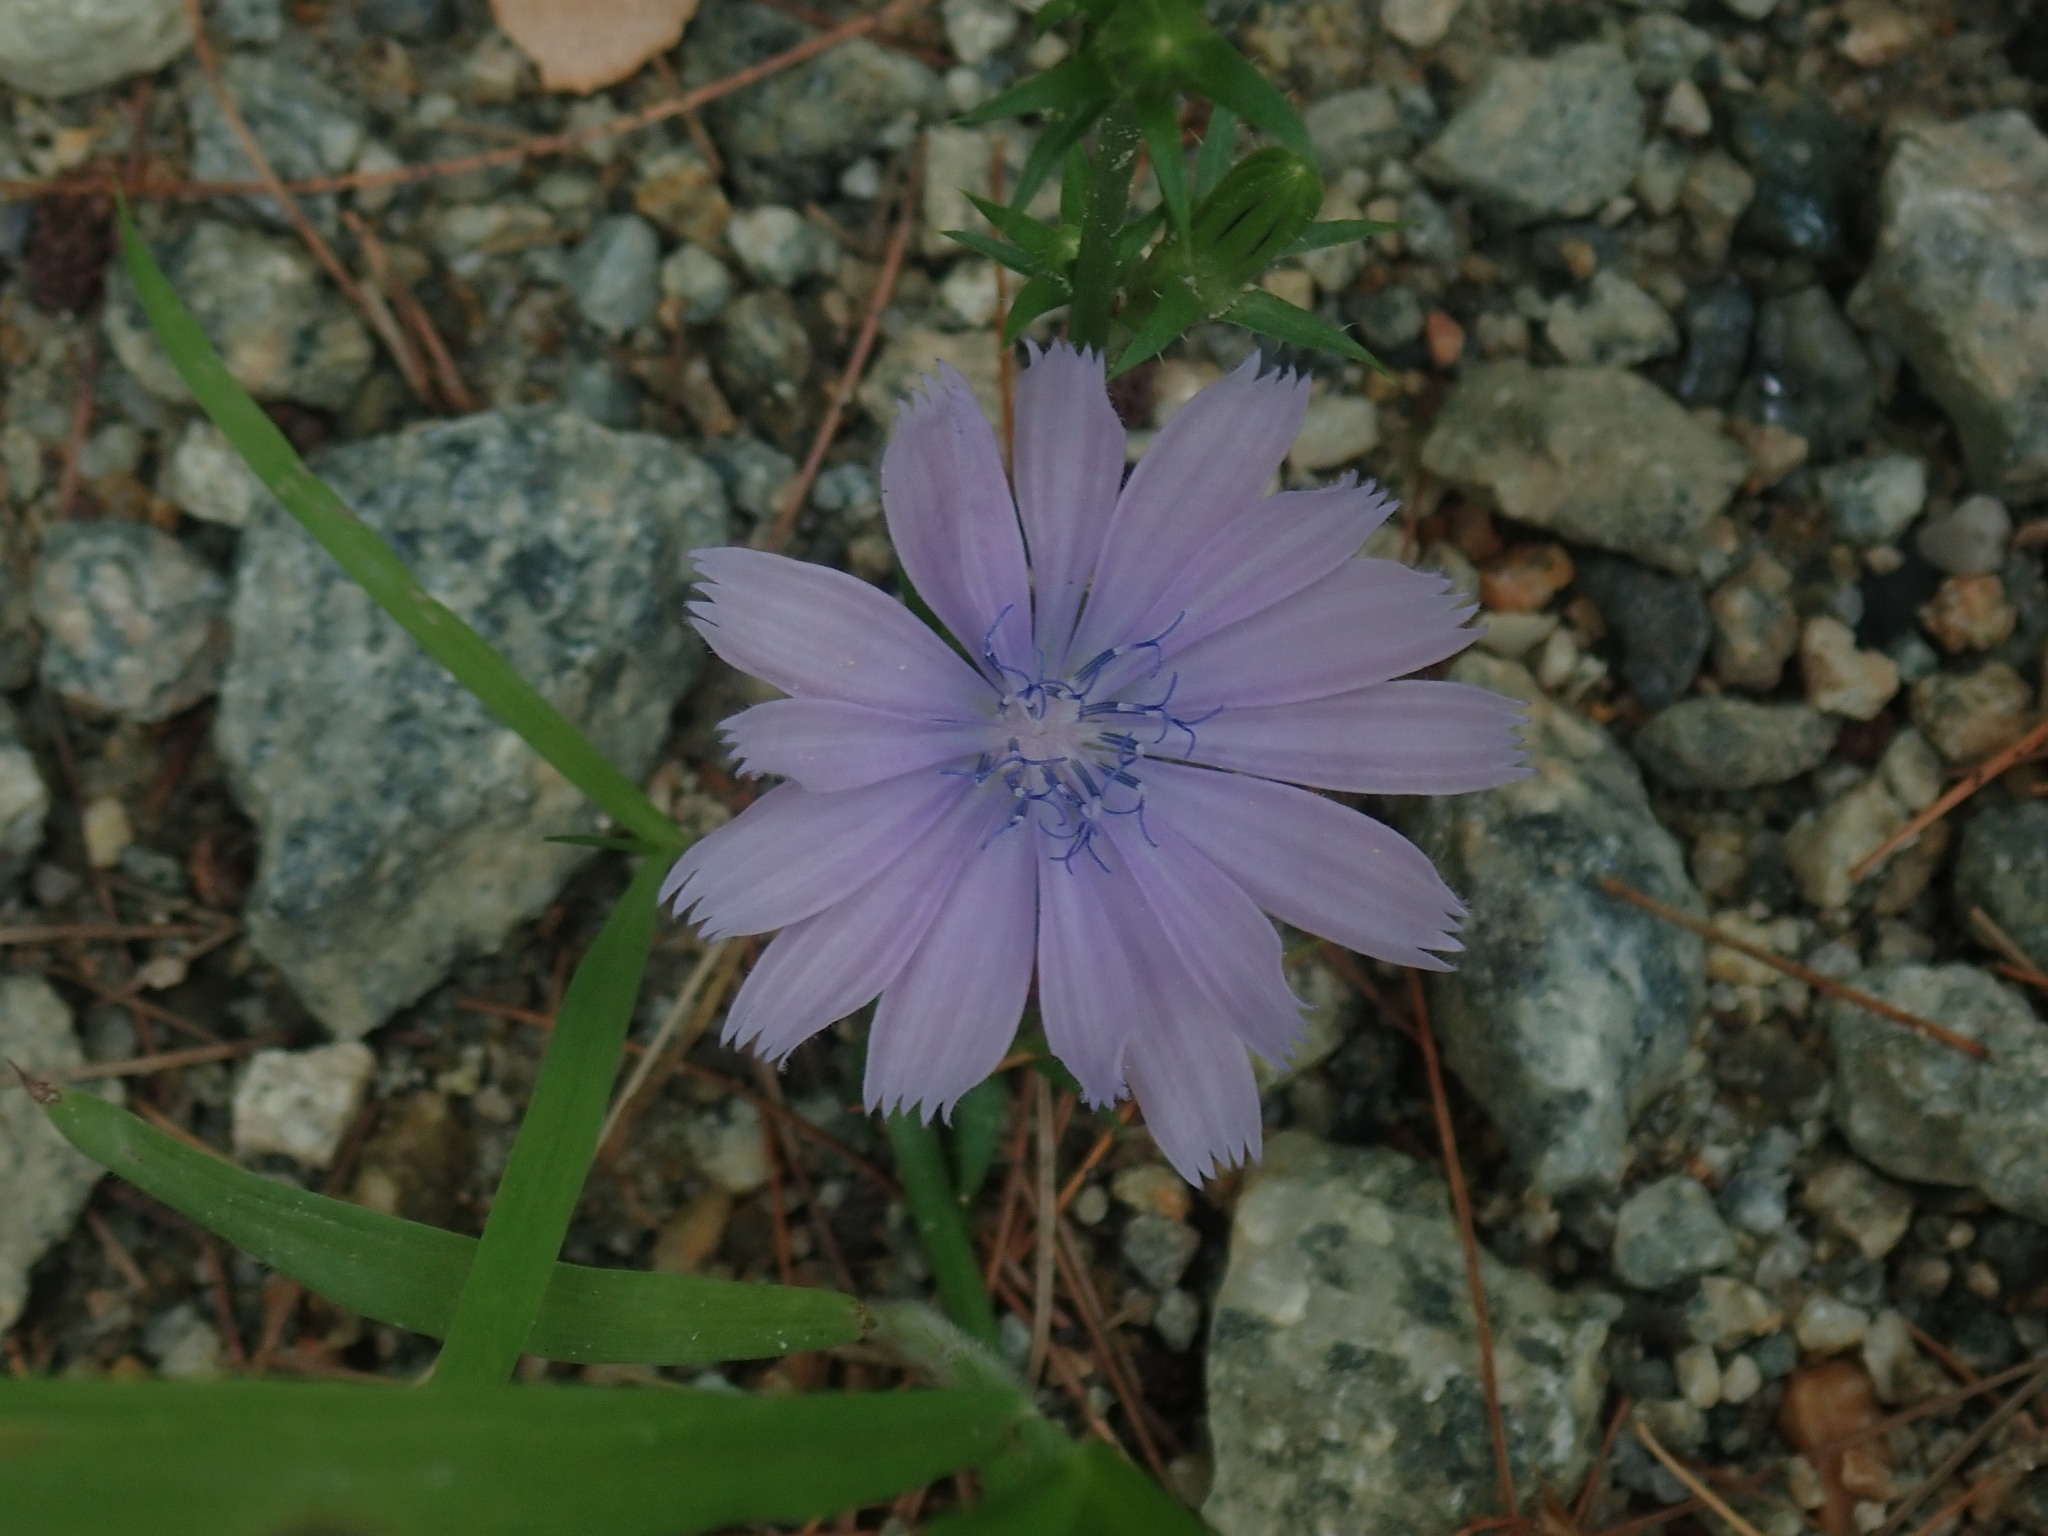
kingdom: Plantae
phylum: Tracheophyta
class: Magnoliopsida
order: Asterales
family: Asteraceae
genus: Cichorium
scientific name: Cichorium intybus
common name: Chicory
